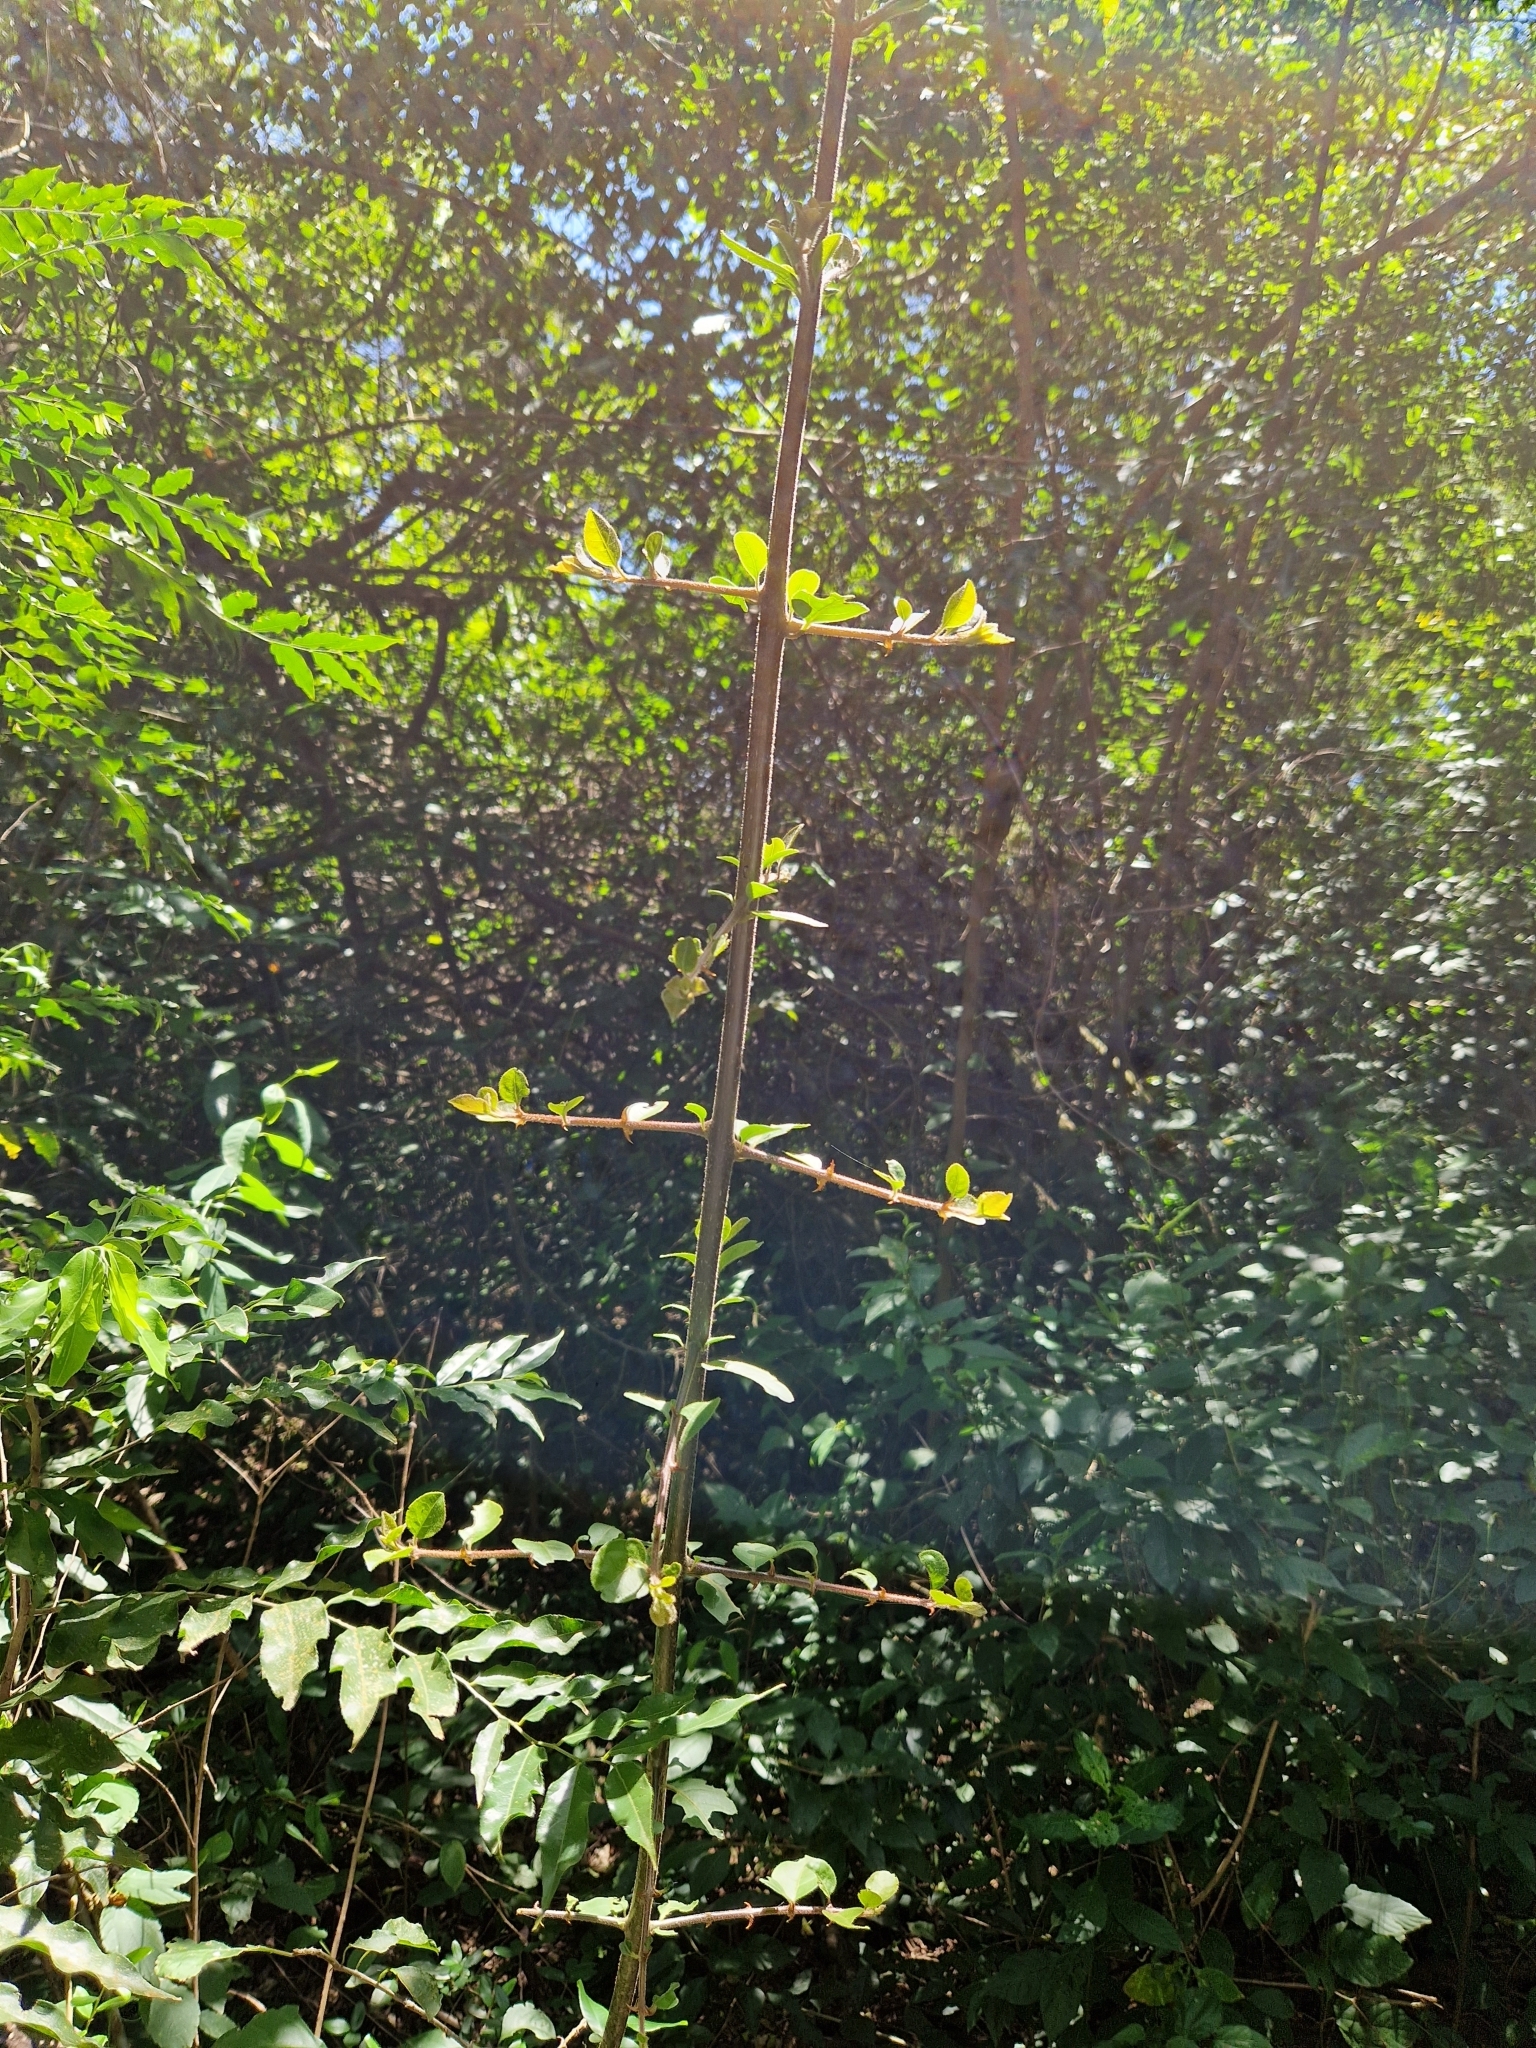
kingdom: Plantae
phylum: Tracheophyta
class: Magnoliopsida
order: Caryophyllales
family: Nyctaginaceae
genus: Pisonia
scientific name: Pisonia aculeata
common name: Cockspur vine
